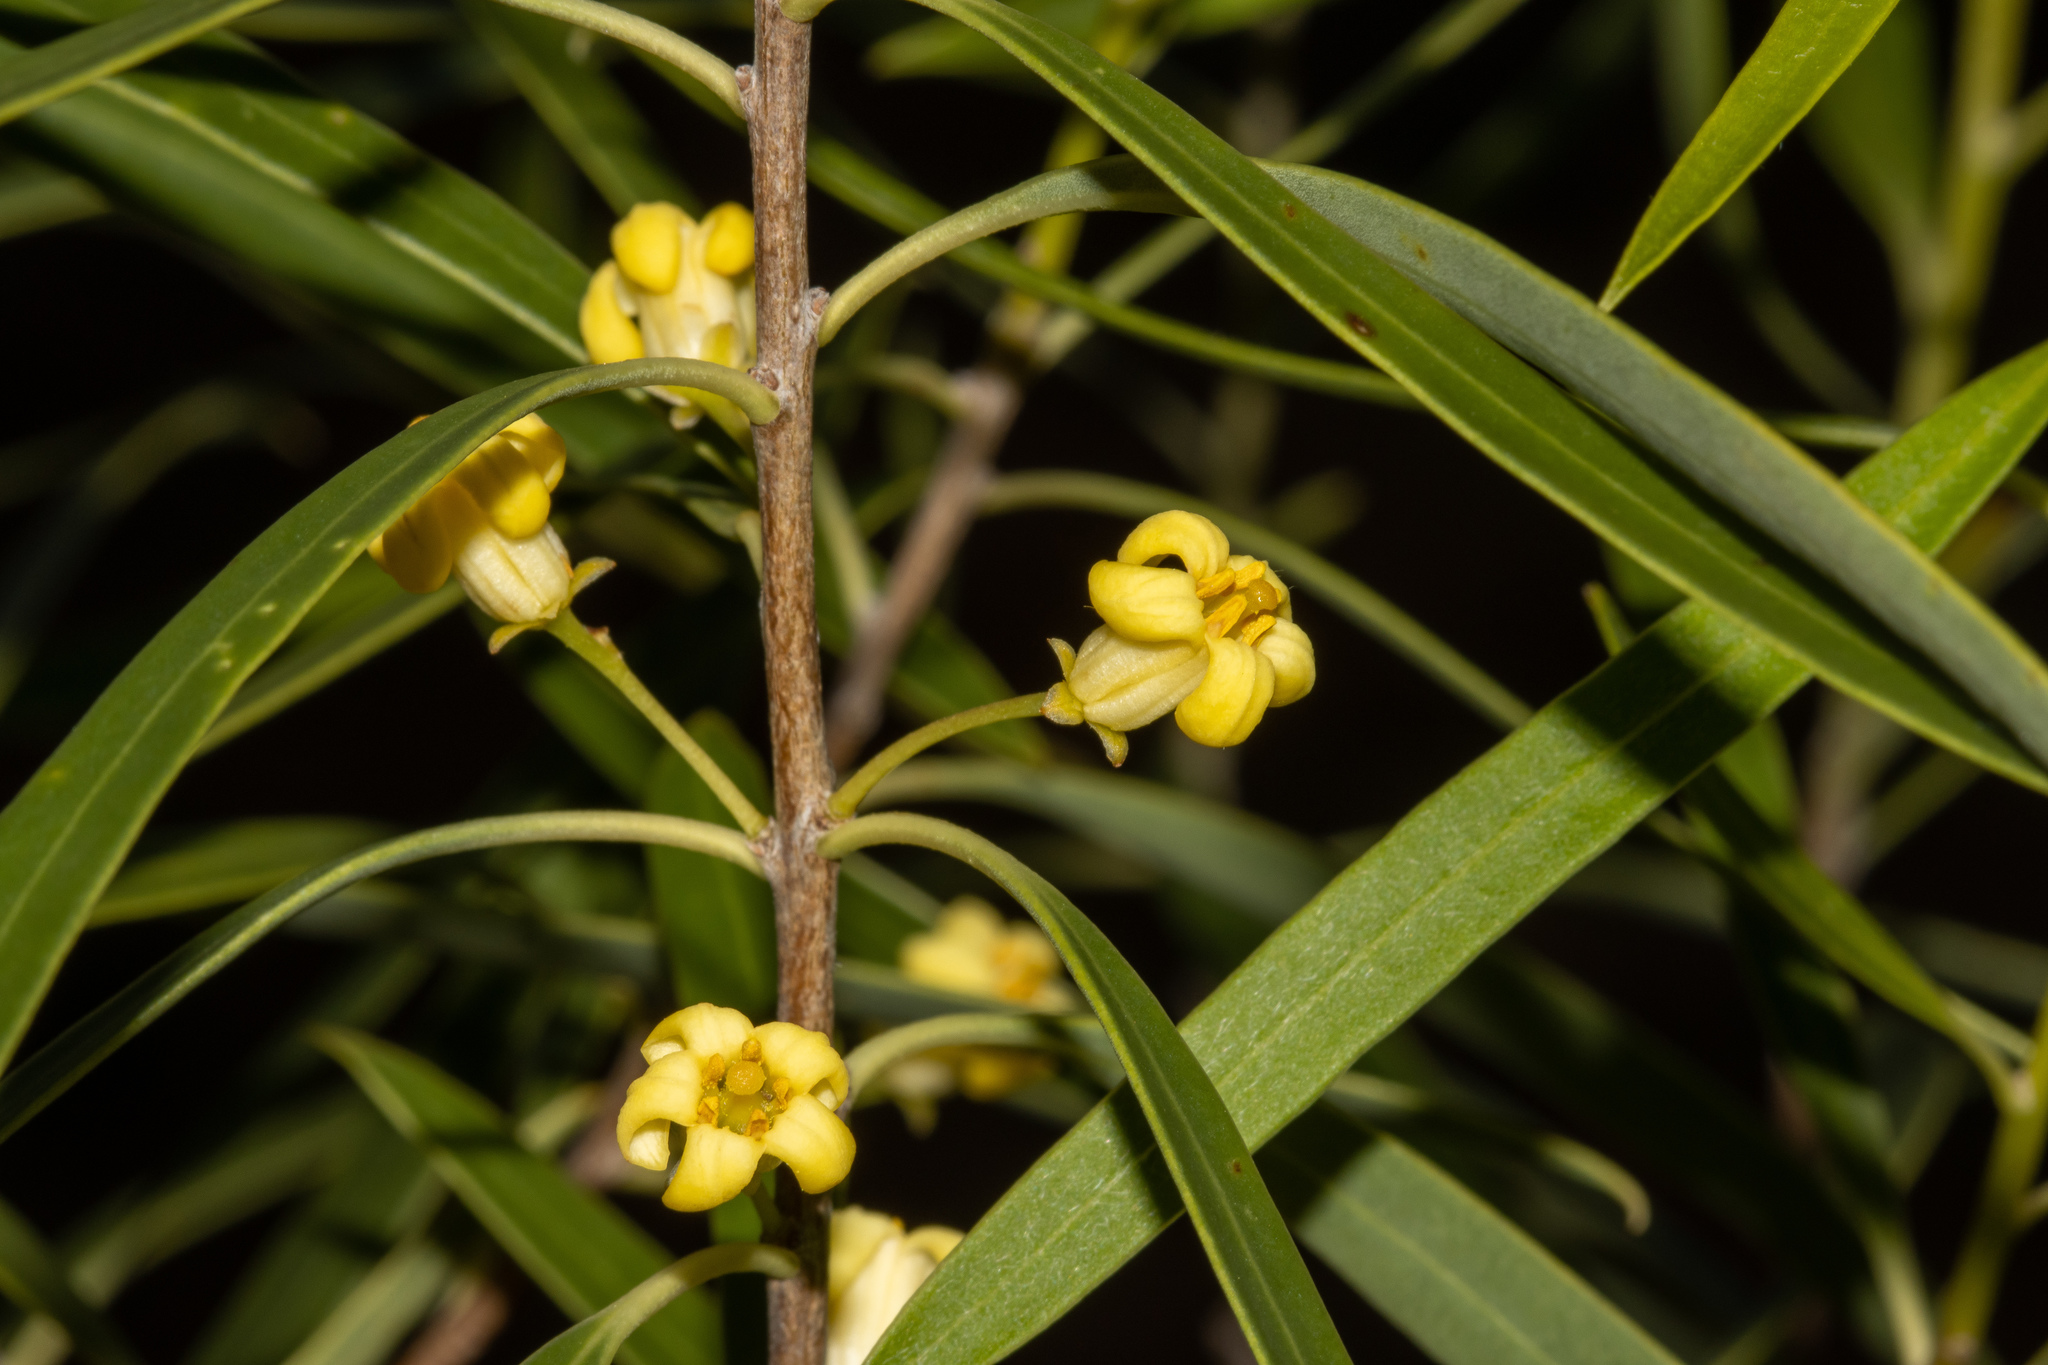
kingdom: Plantae
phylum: Tracheophyta
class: Magnoliopsida
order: Apiales
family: Pittosporaceae
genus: Pittosporum
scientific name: Pittosporum angustifolium
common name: Weeping pittosporum
